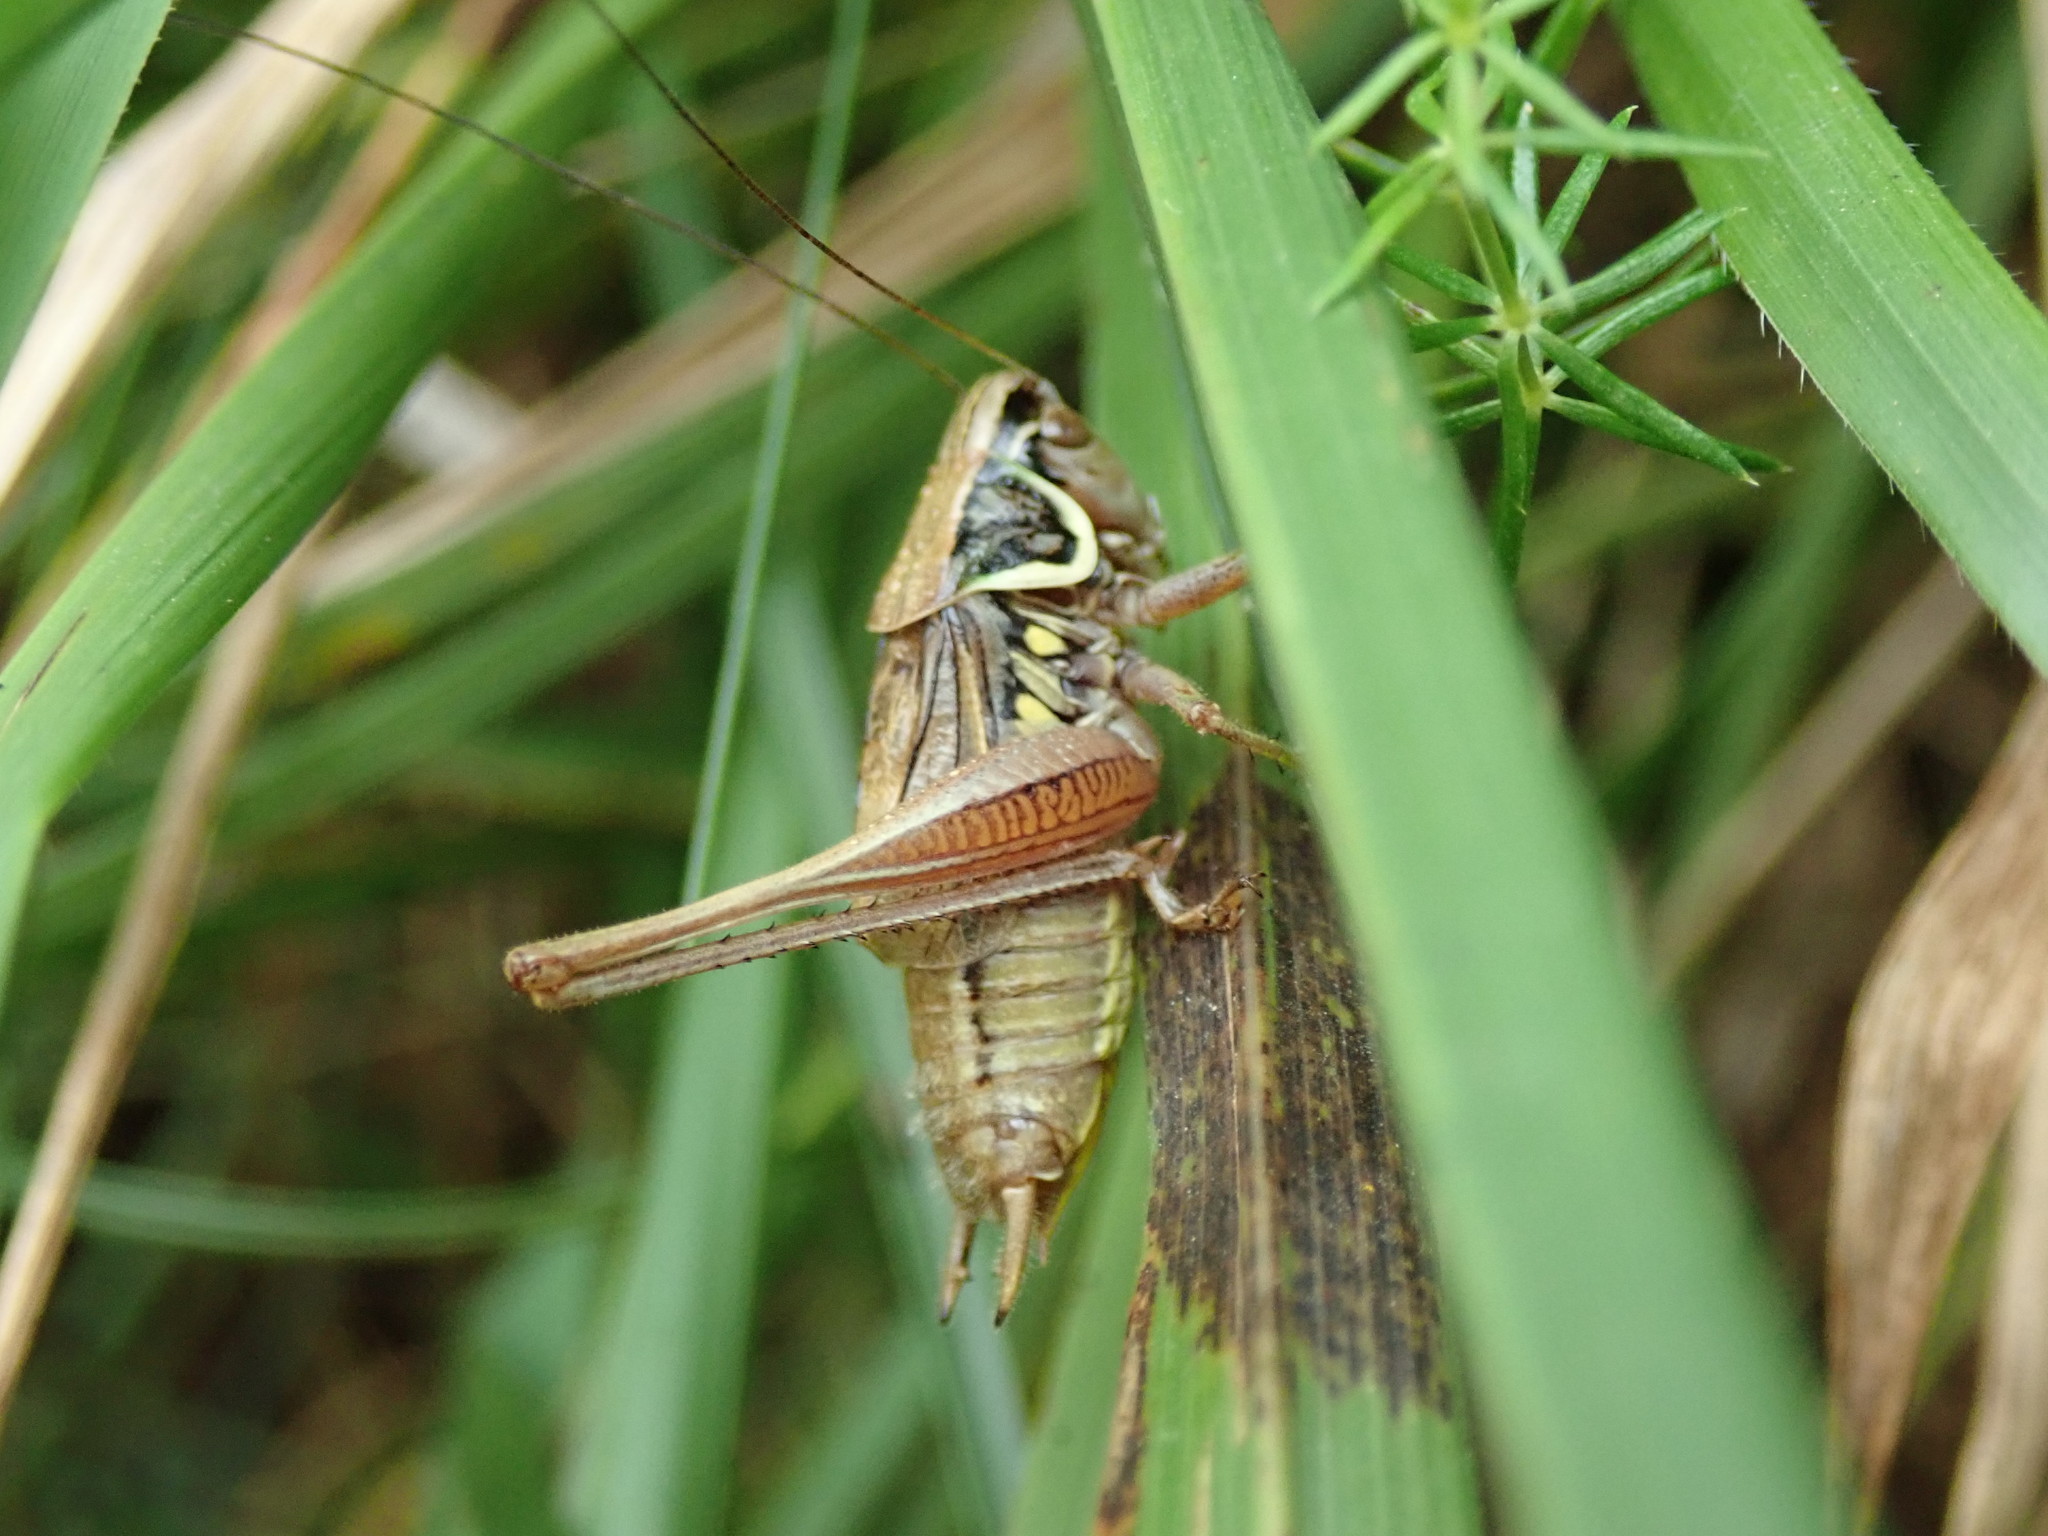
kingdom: Animalia
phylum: Arthropoda
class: Insecta
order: Orthoptera
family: Tettigoniidae
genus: Roeseliana
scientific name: Roeseliana roeselii
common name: Roesel's bush cricket
